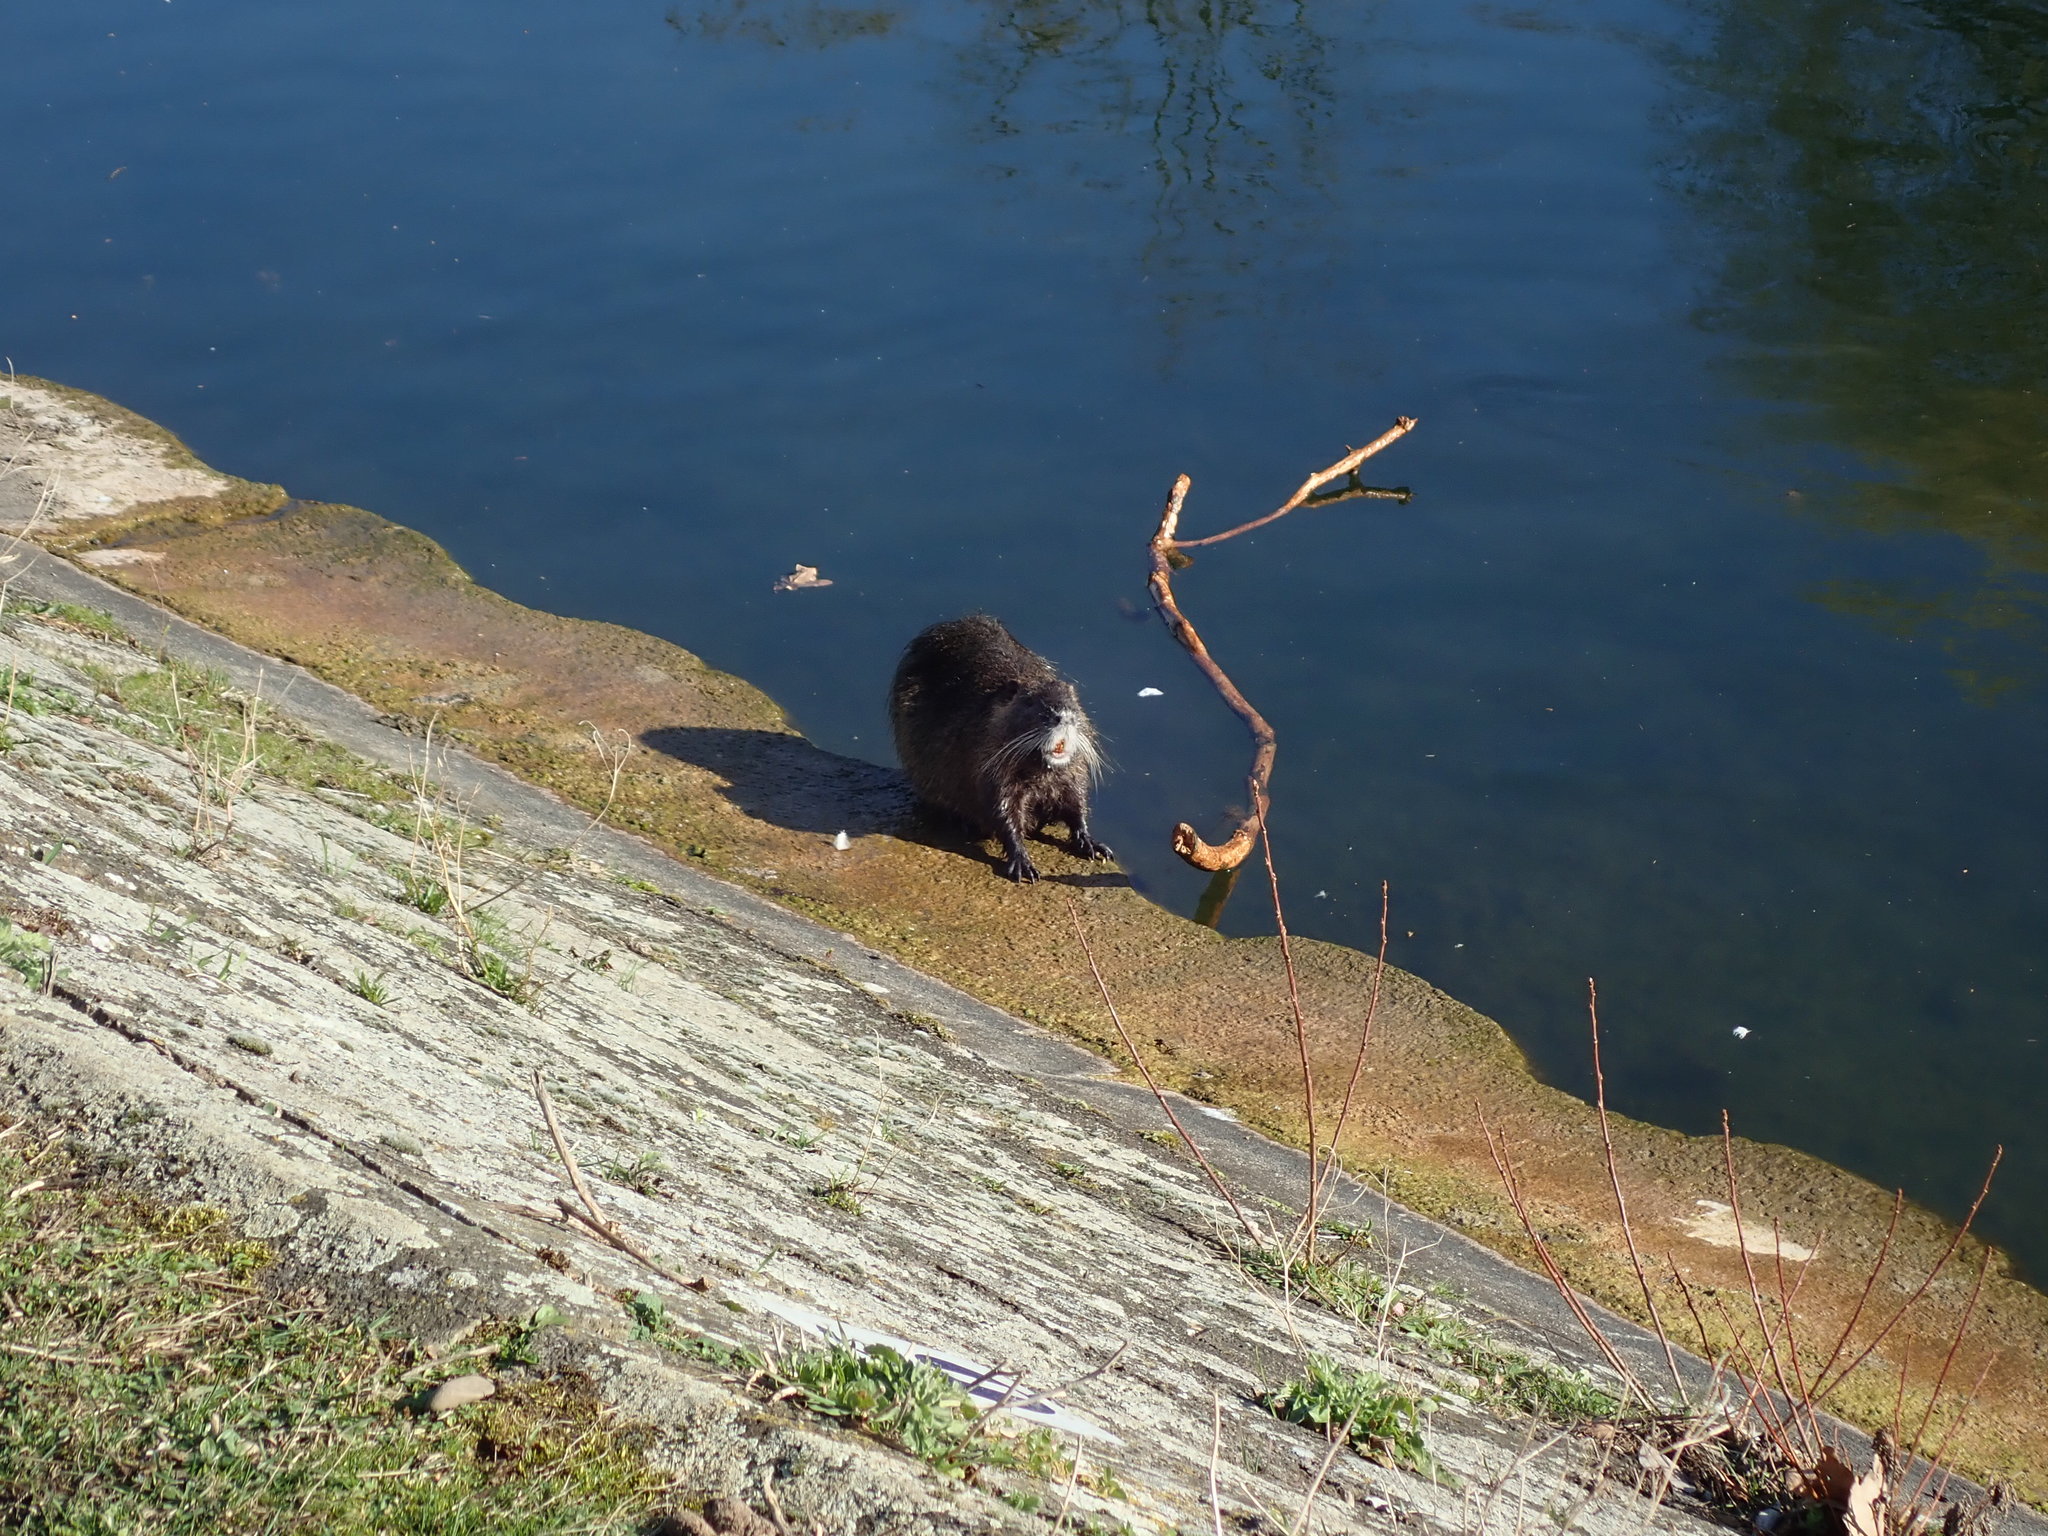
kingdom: Animalia
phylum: Chordata
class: Mammalia
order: Rodentia
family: Myocastoridae
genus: Myocastor
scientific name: Myocastor coypus
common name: Coypu
